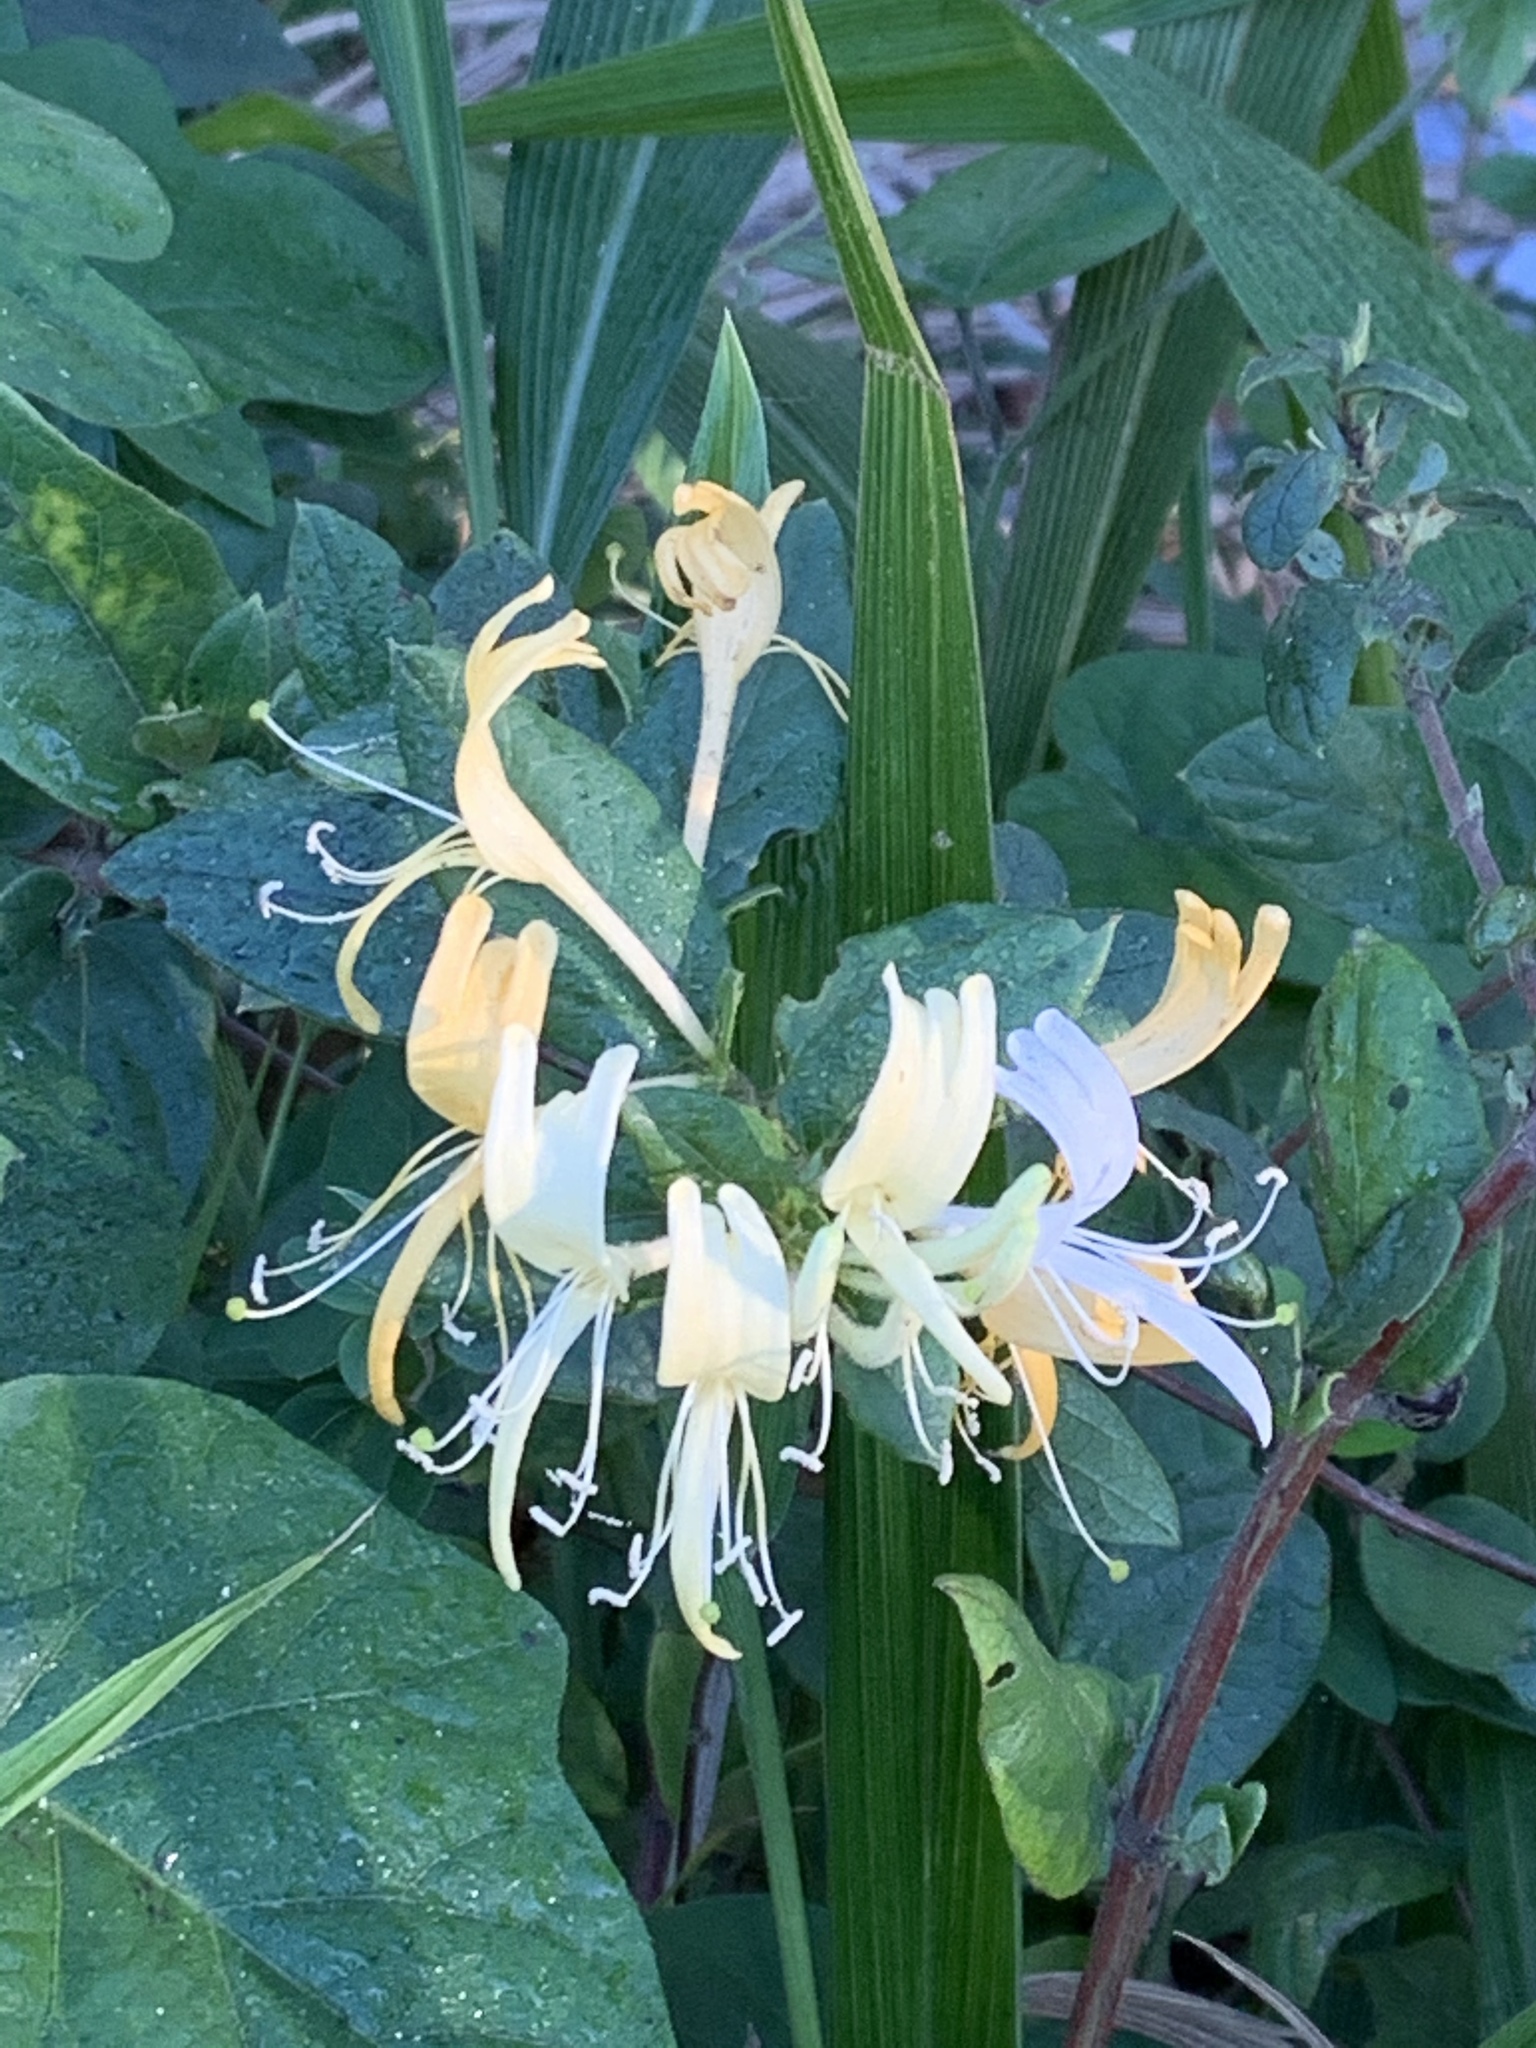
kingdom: Plantae
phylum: Tracheophyta
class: Magnoliopsida
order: Dipsacales
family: Caprifoliaceae
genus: Lonicera
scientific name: Lonicera japonica
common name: Japanese honeysuckle
